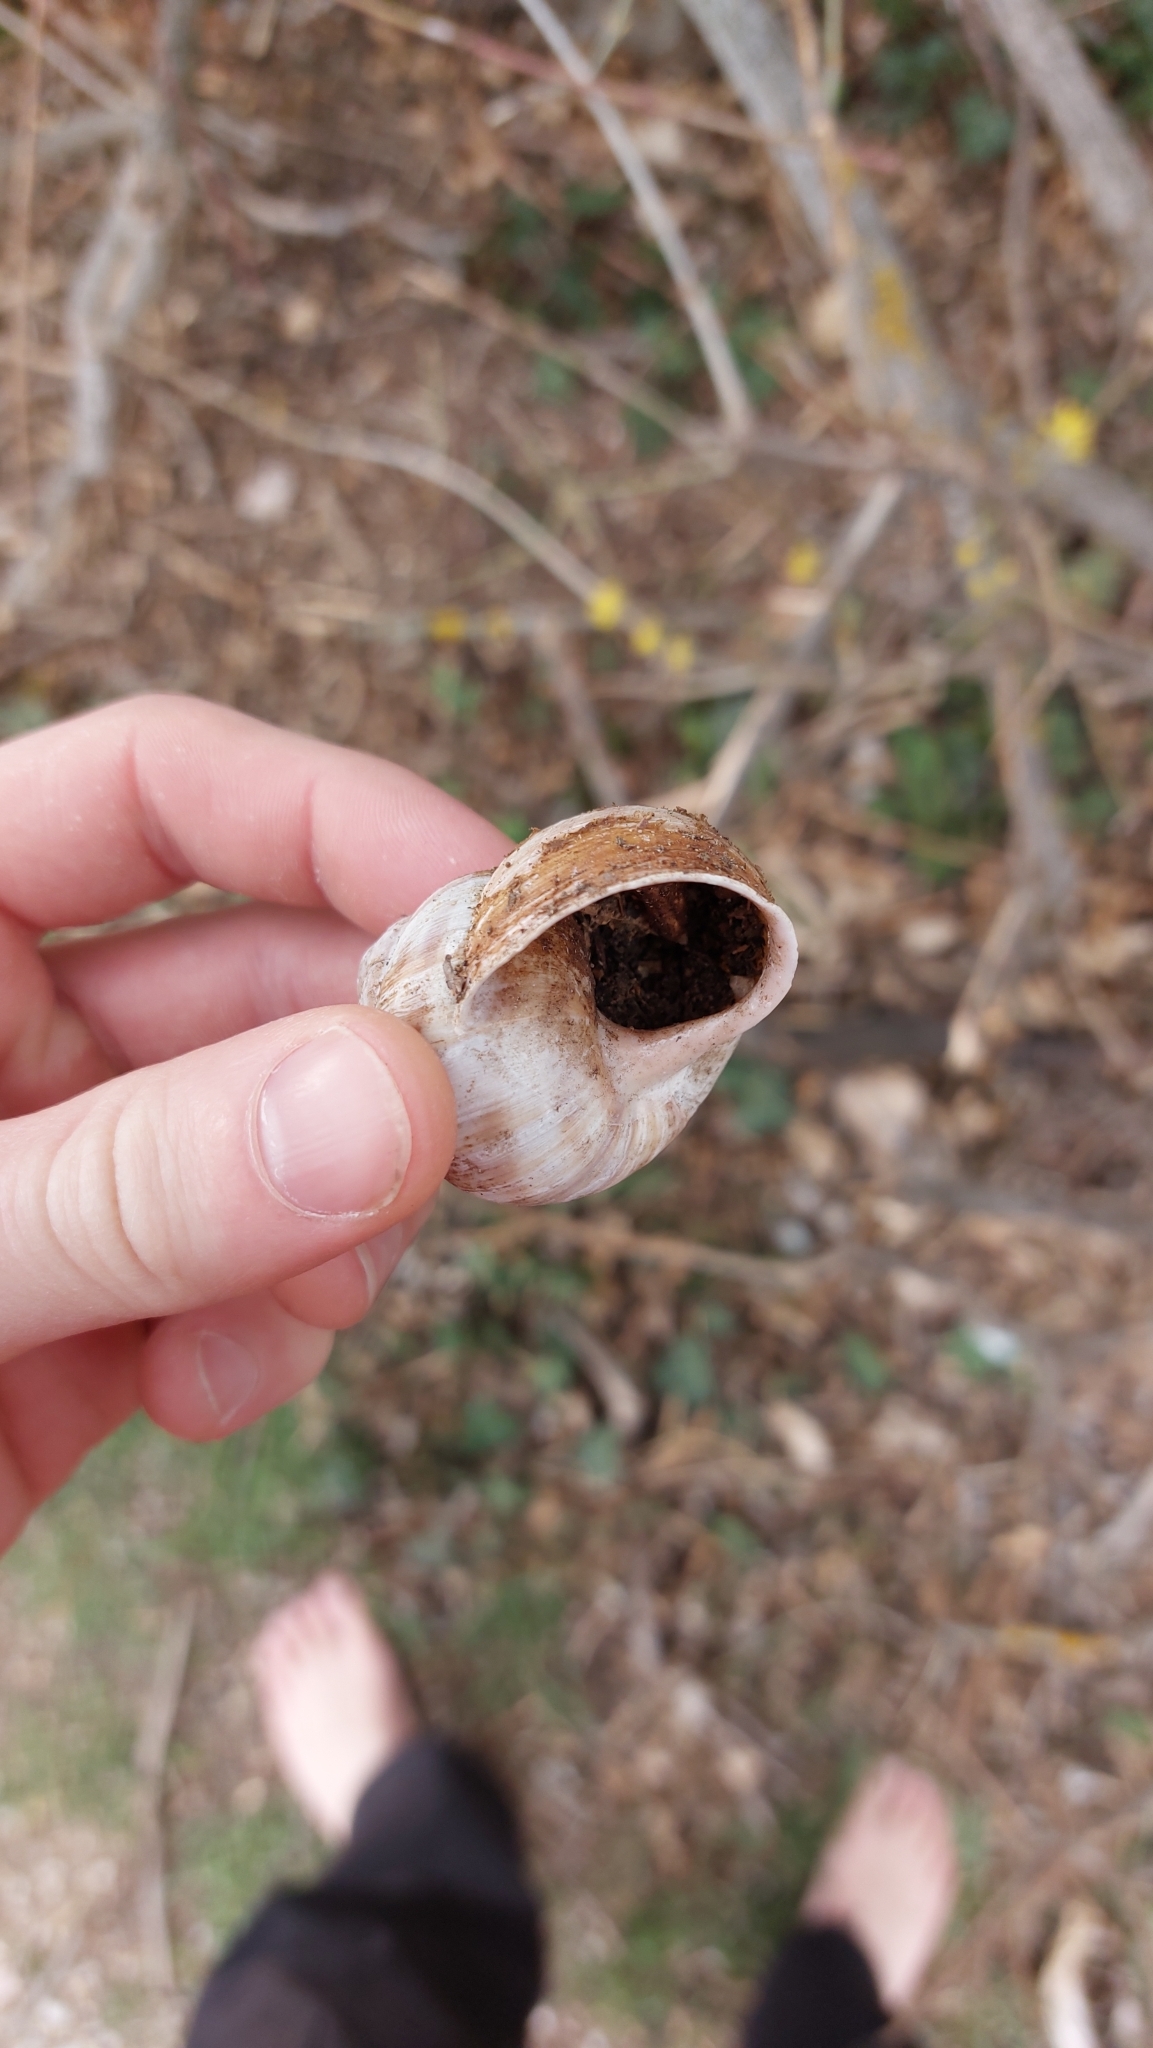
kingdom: Animalia
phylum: Mollusca
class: Gastropoda
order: Stylommatophora
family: Helicidae
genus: Helix
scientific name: Helix pomatia
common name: Roman snail
